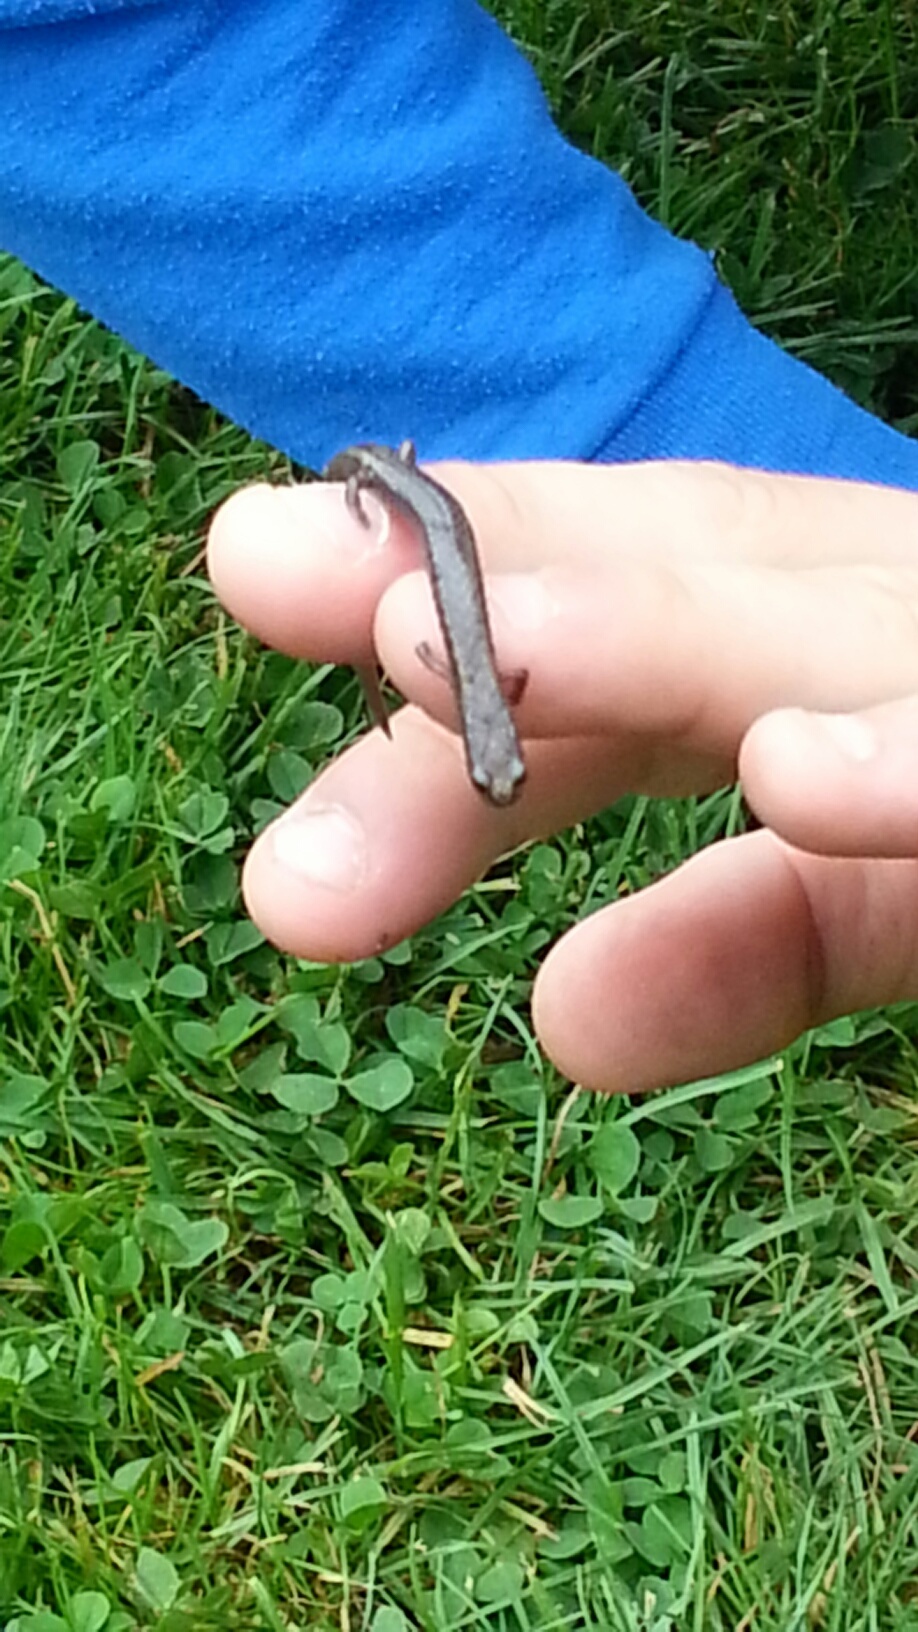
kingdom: Animalia
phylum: Chordata
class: Amphibia
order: Caudata
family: Plethodontidae
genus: Batrachoseps
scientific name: Batrachoseps attenuatus
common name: California slender salamander
